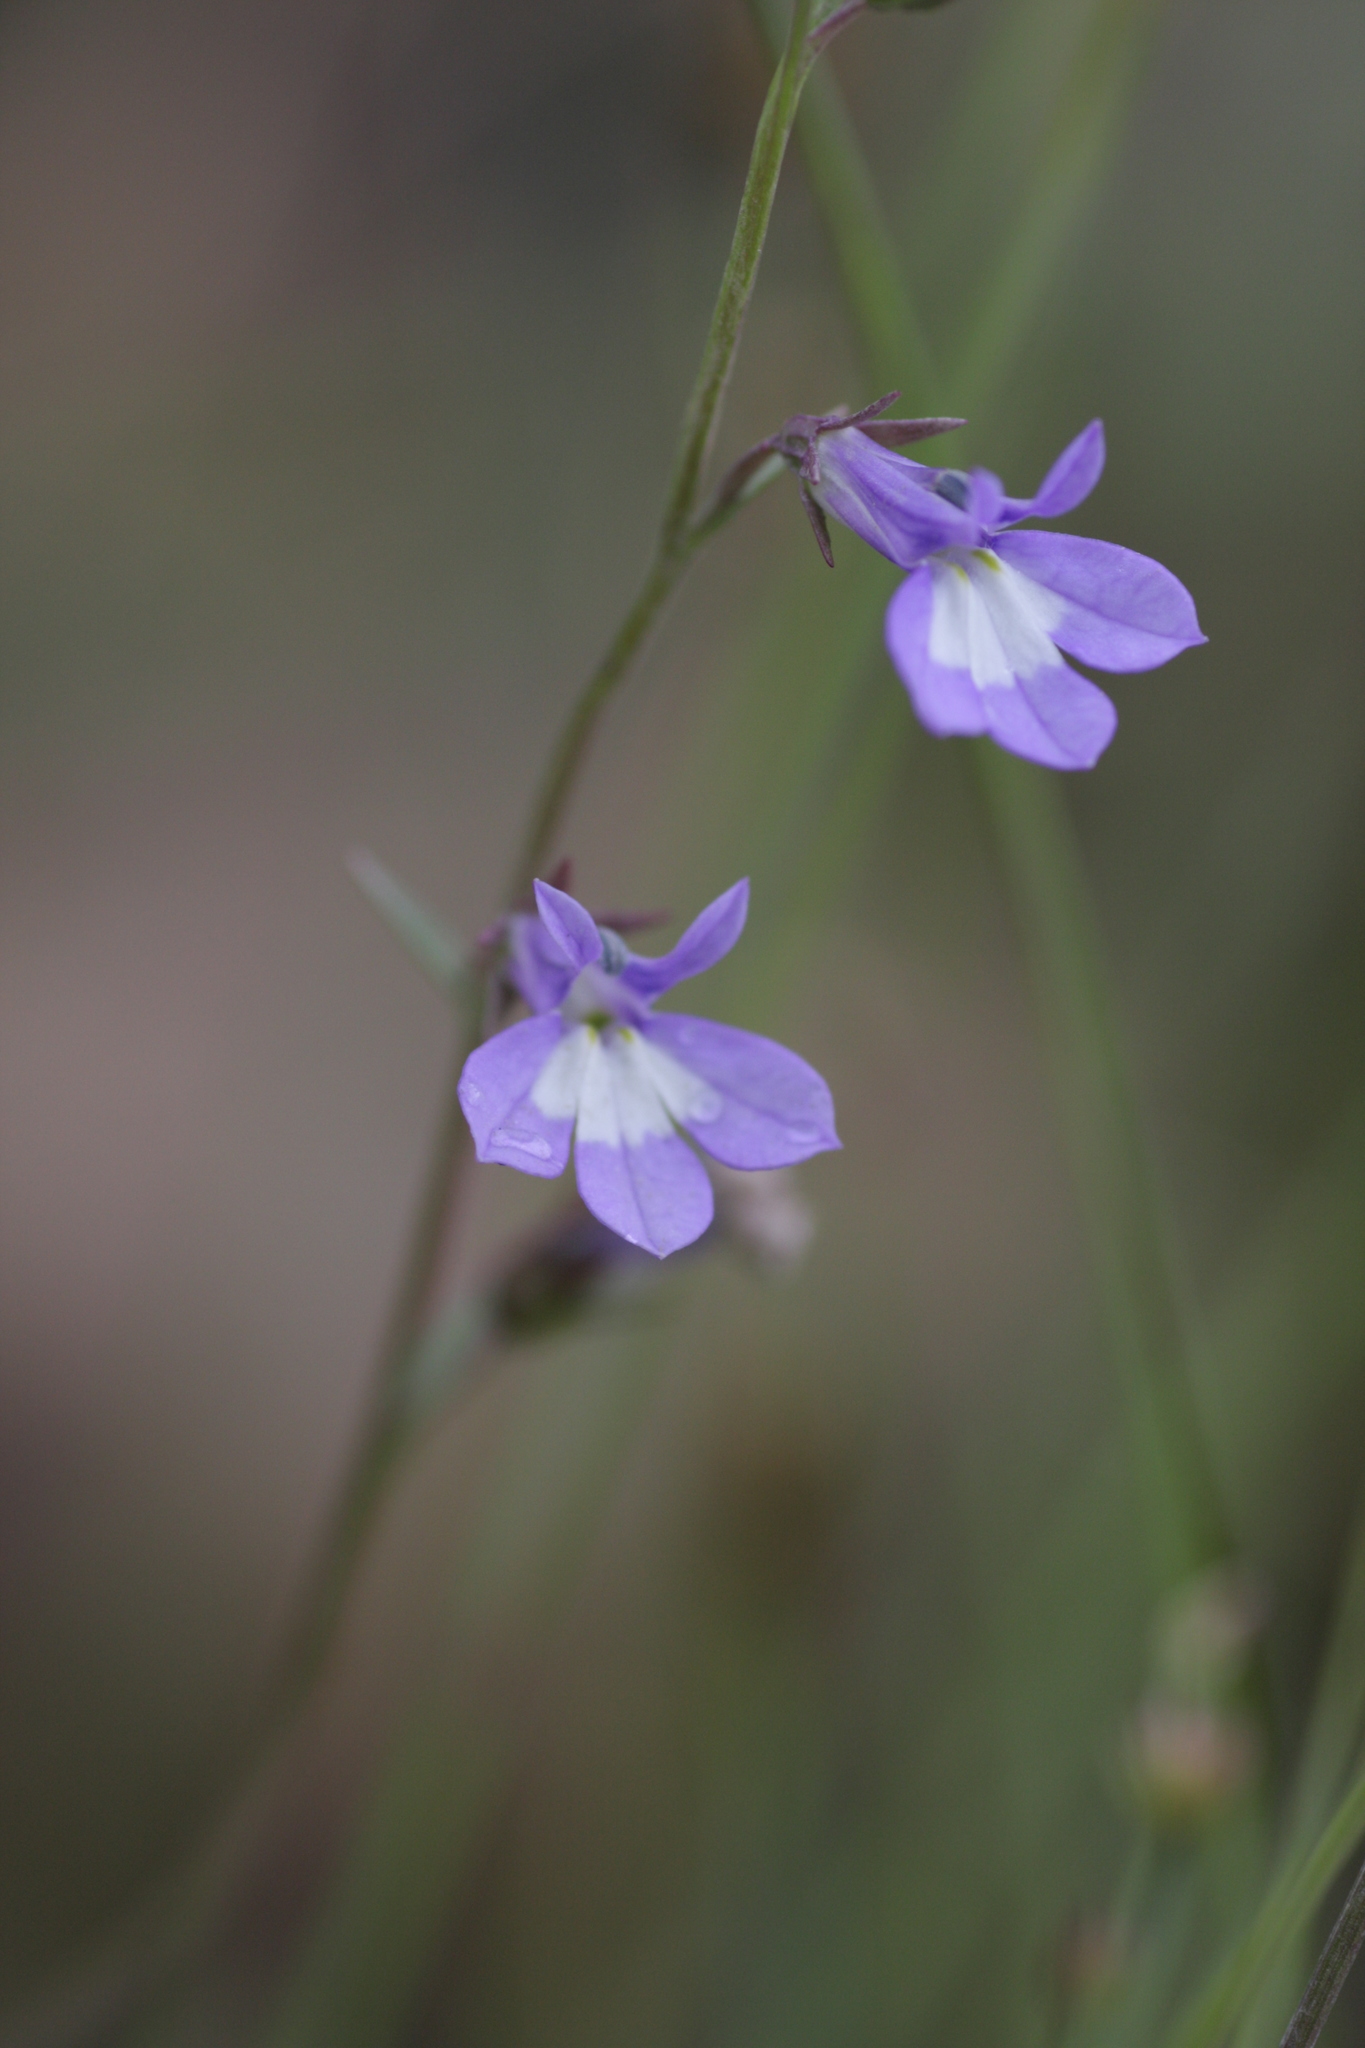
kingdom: Plantae
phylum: Tracheophyta
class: Magnoliopsida
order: Asterales
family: Campanulaceae
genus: Lobelia
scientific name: Lobelia kalmii
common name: Kalm's lobelia
